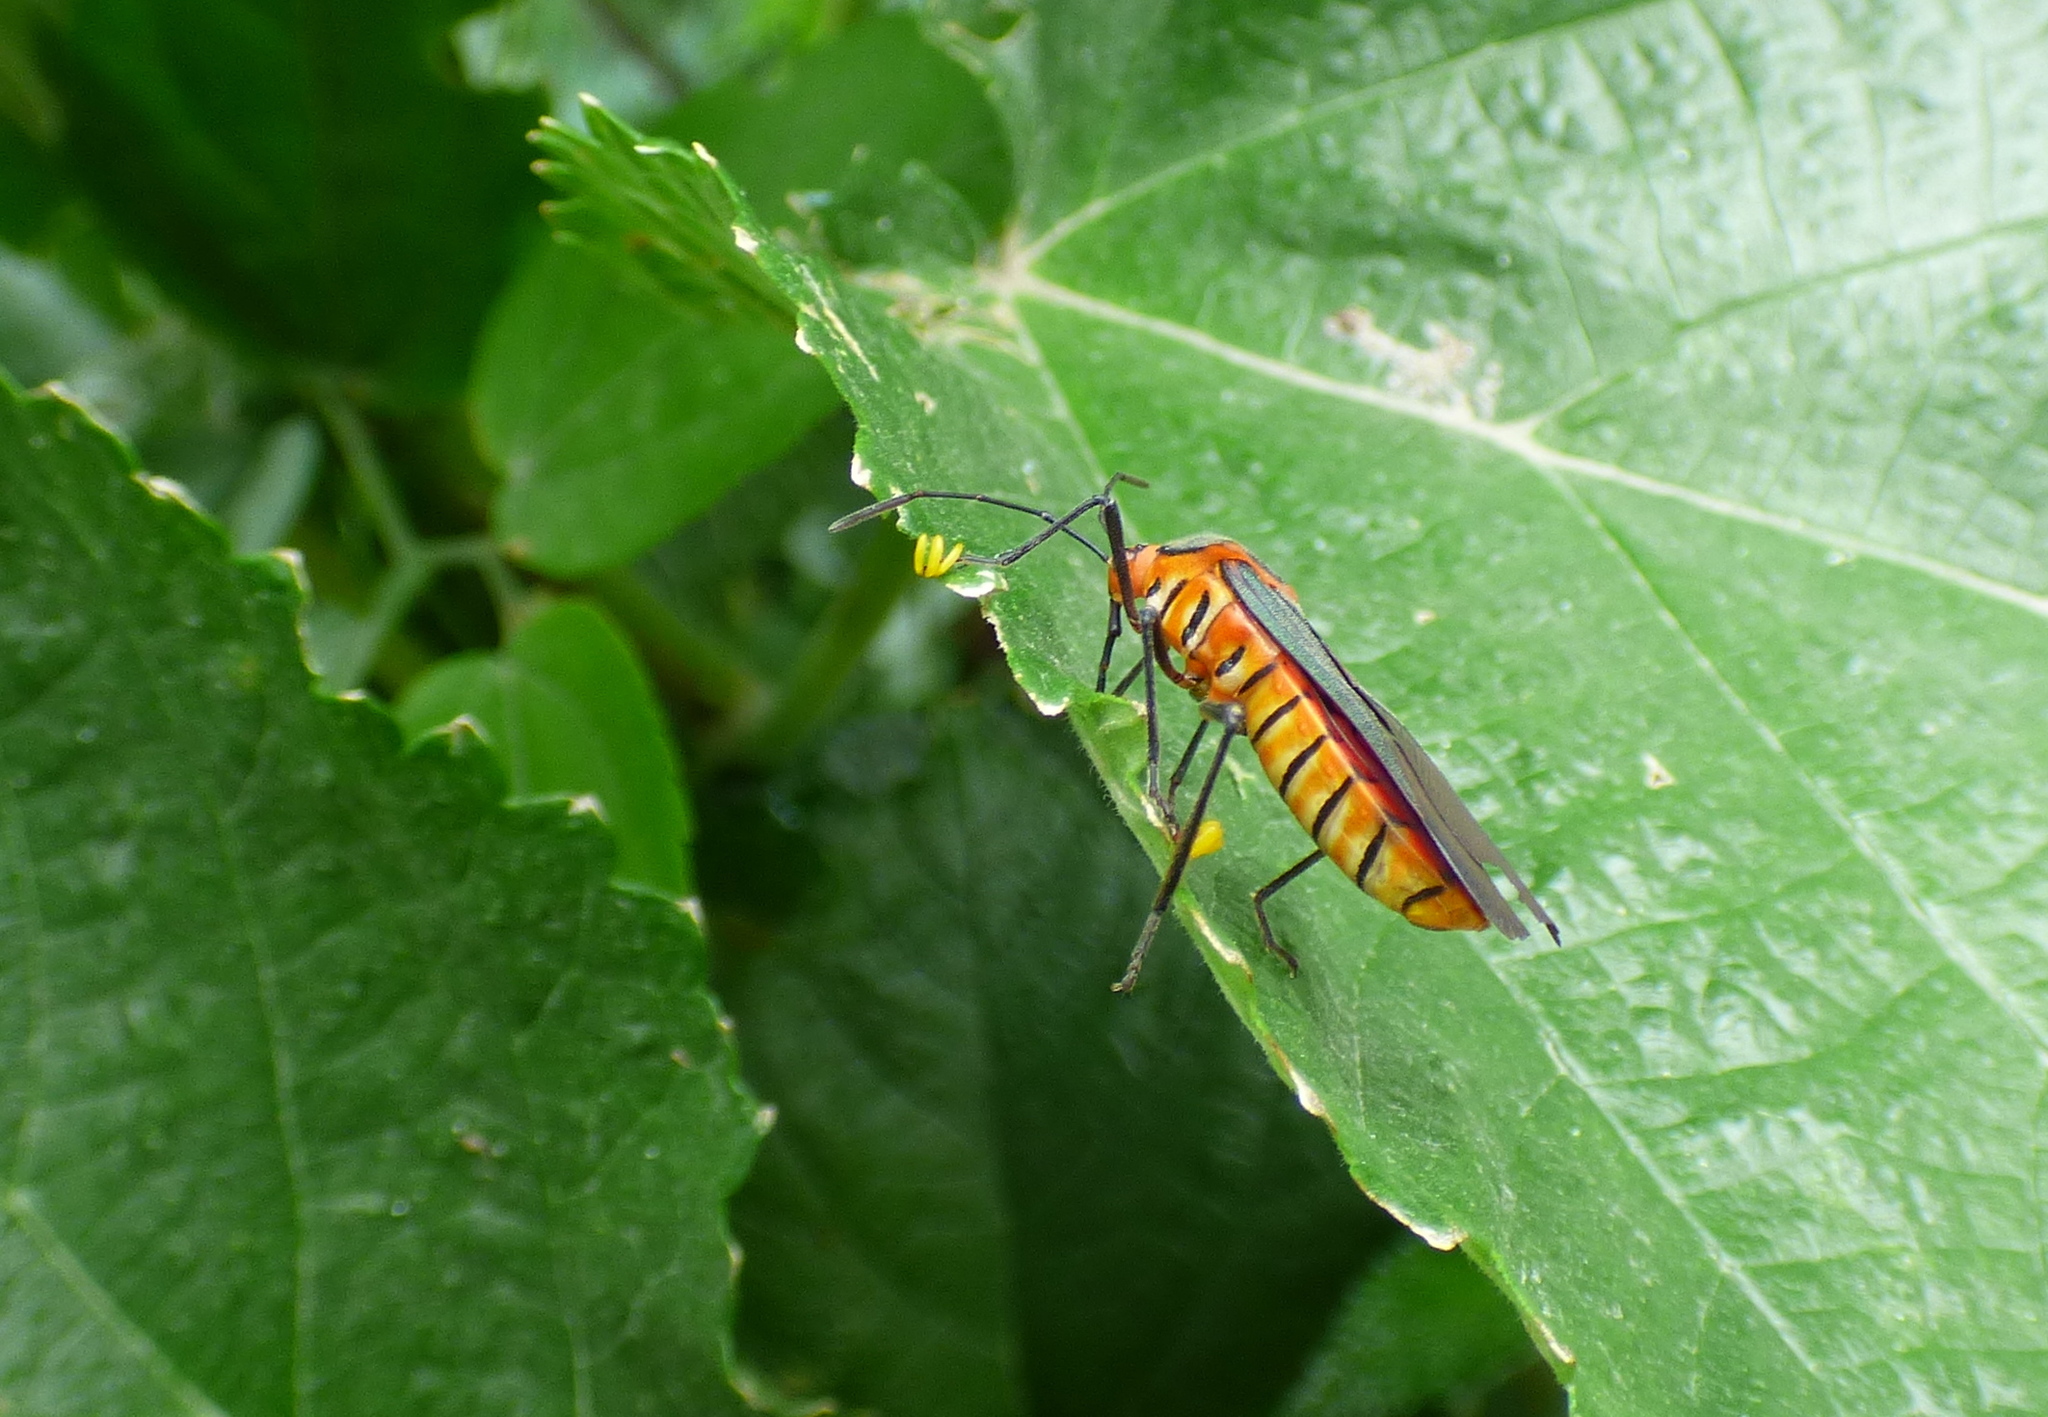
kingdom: Animalia
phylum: Arthropoda
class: Insecta
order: Hemiptera
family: Coreidae
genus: Sphictyrtus
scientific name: Sphictyrtus chrysis
